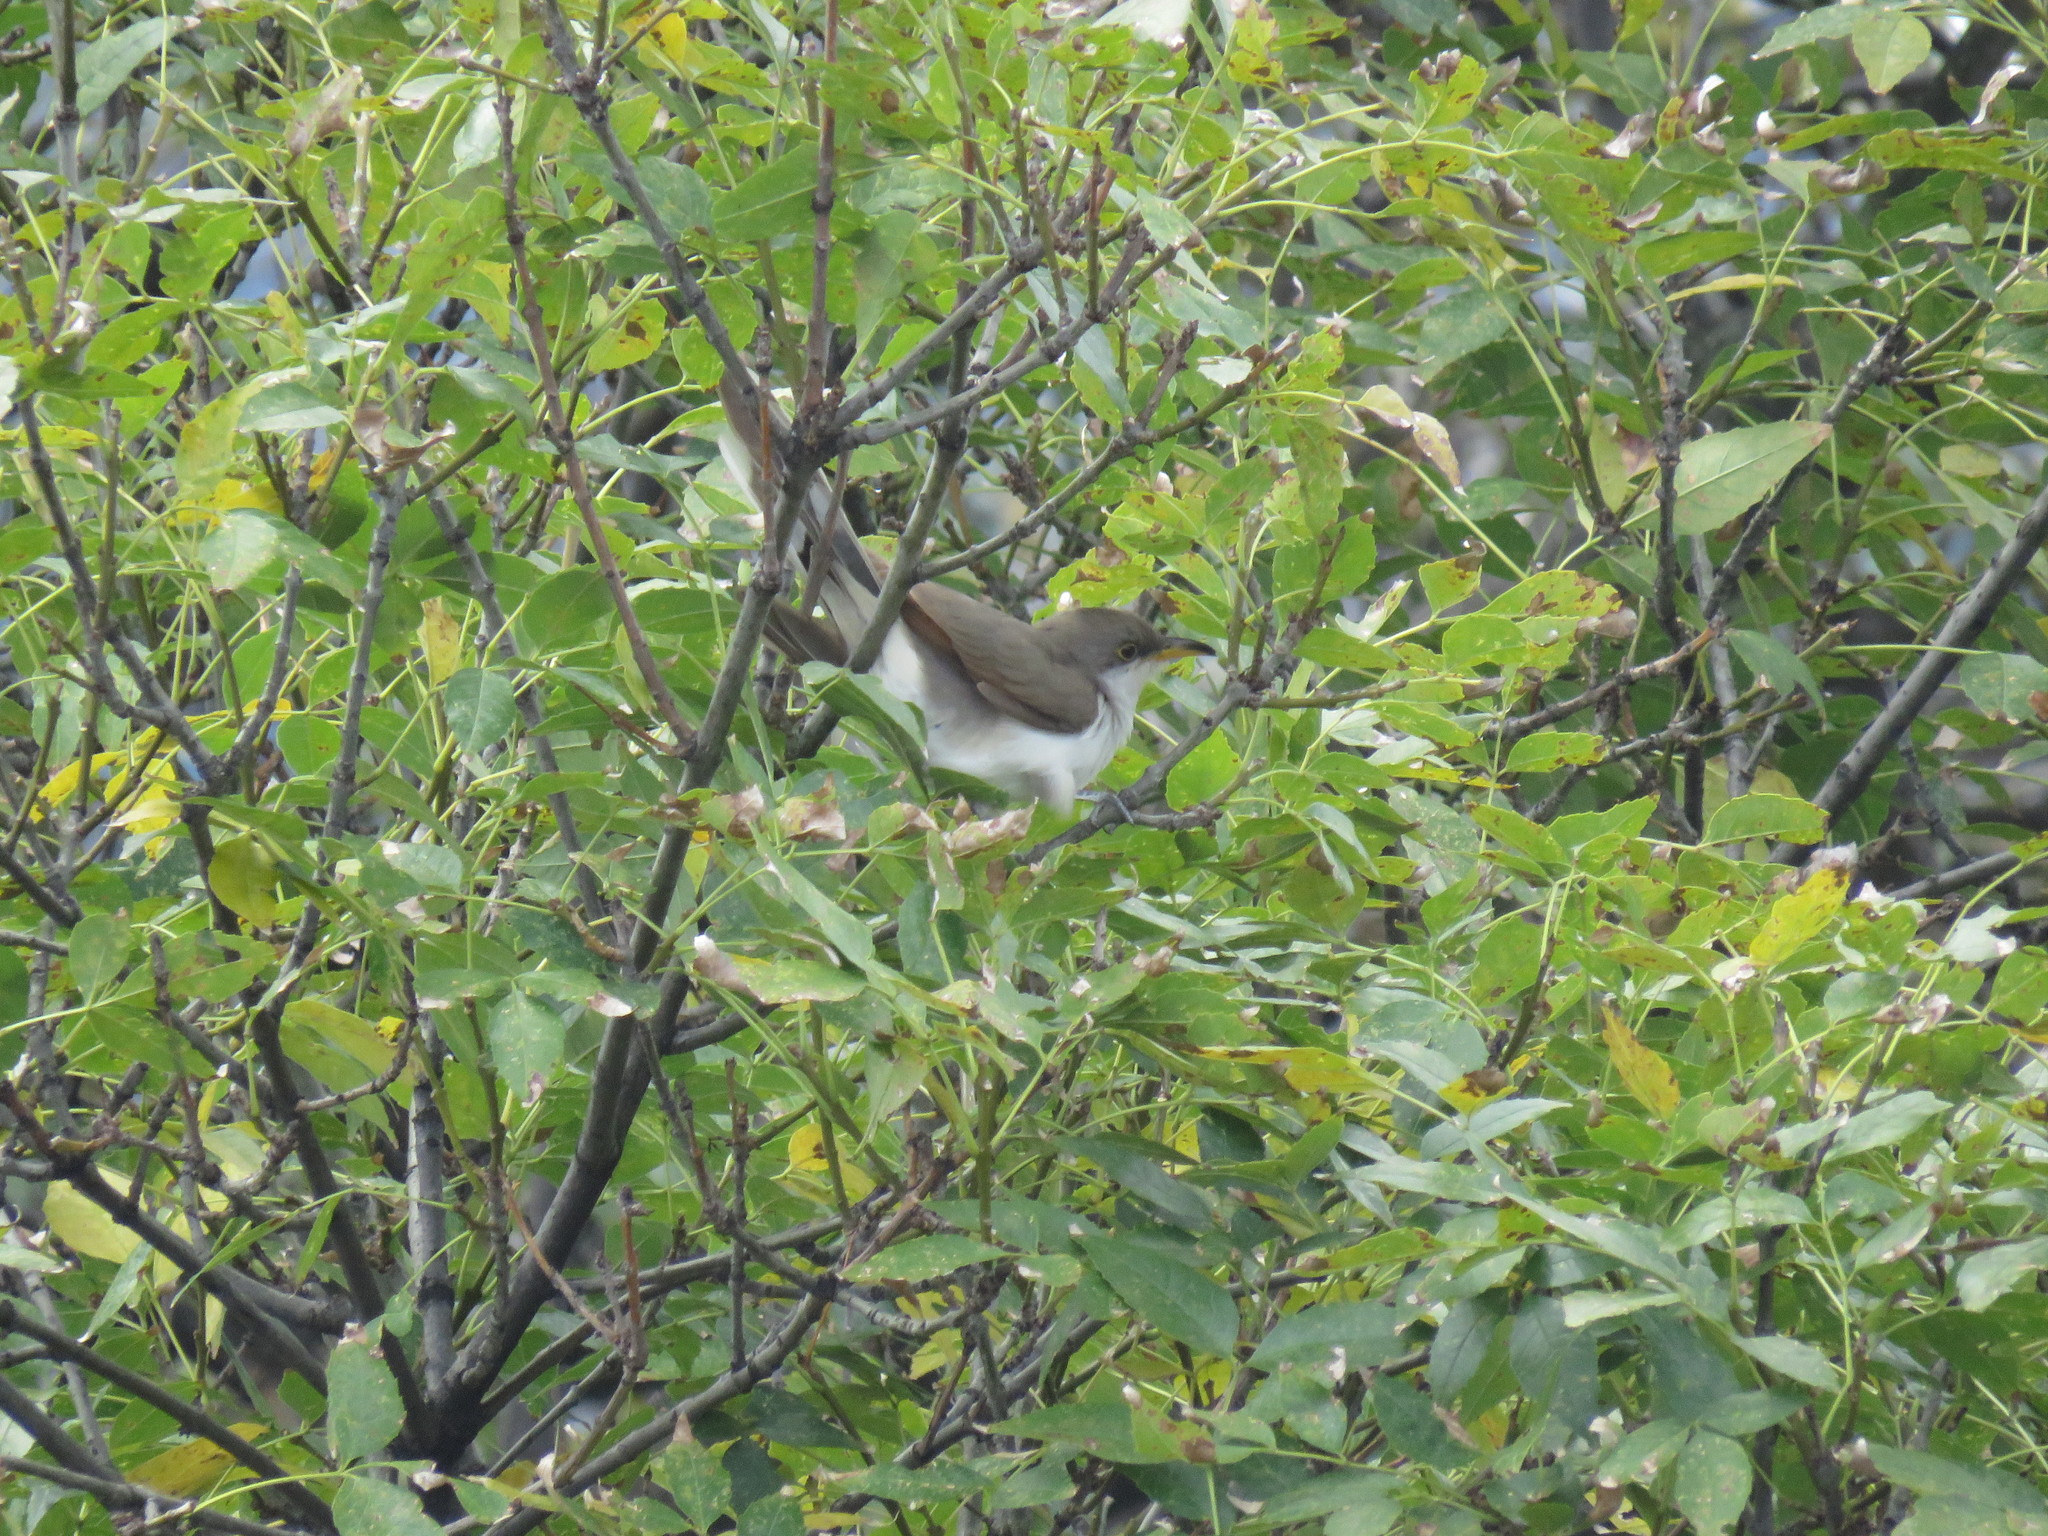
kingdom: Animalia
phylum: Chordata
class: Aves
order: Cuculiformes
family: Cuculidae
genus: Coccyzus
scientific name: Coccyzus americanus
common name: Yellow-billed cuckoo
